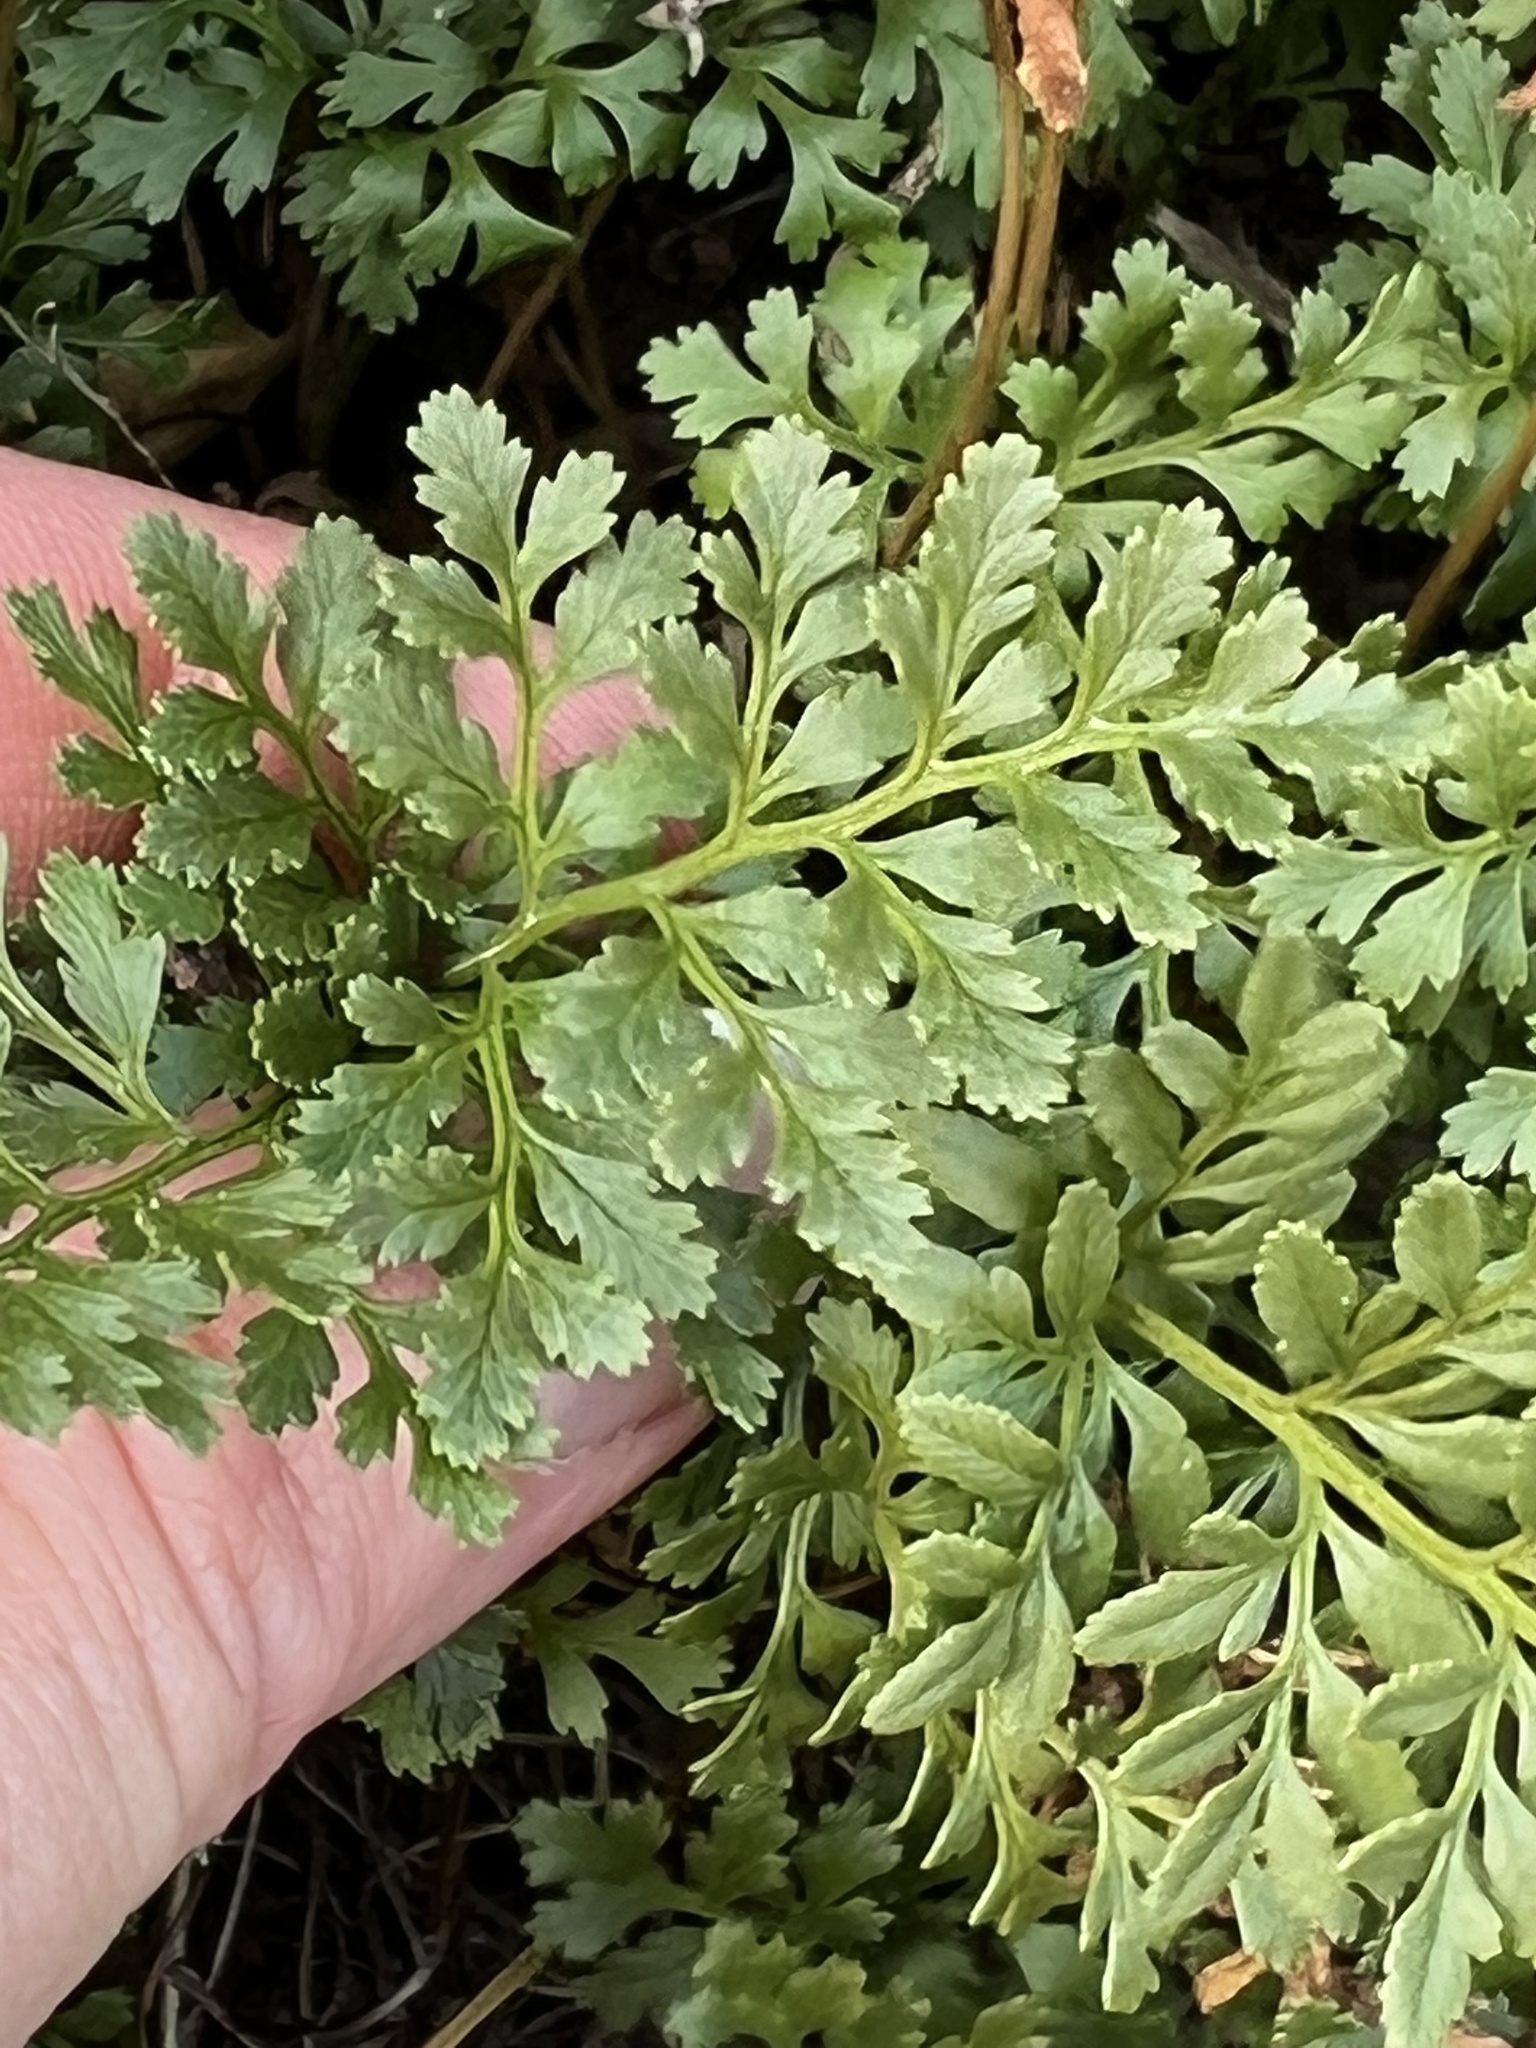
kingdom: Plantae
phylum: Tracheophyta
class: Polypodiopsida
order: Polypodiales
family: Pteridaceae
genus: Cryptogramma
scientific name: Cryptogramma acrostichoides
